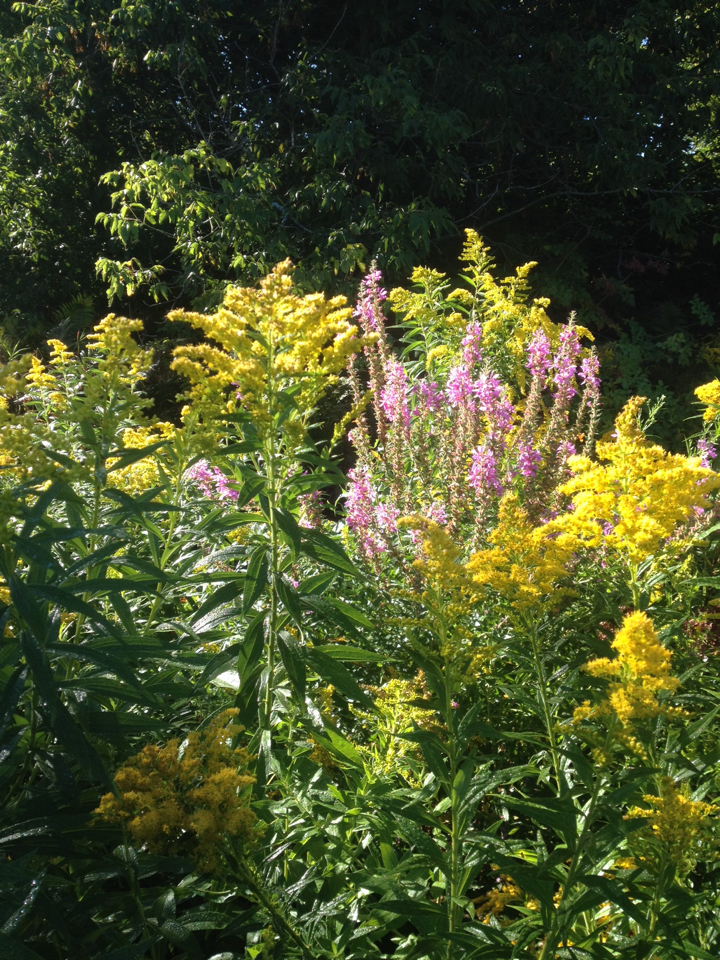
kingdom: Plantae
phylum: Tracheophyta
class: Magnoliopsida
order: Myrtales
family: Lythraceae
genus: Lythrum
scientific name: Lythrum salicaria
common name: Purple loosestrife
